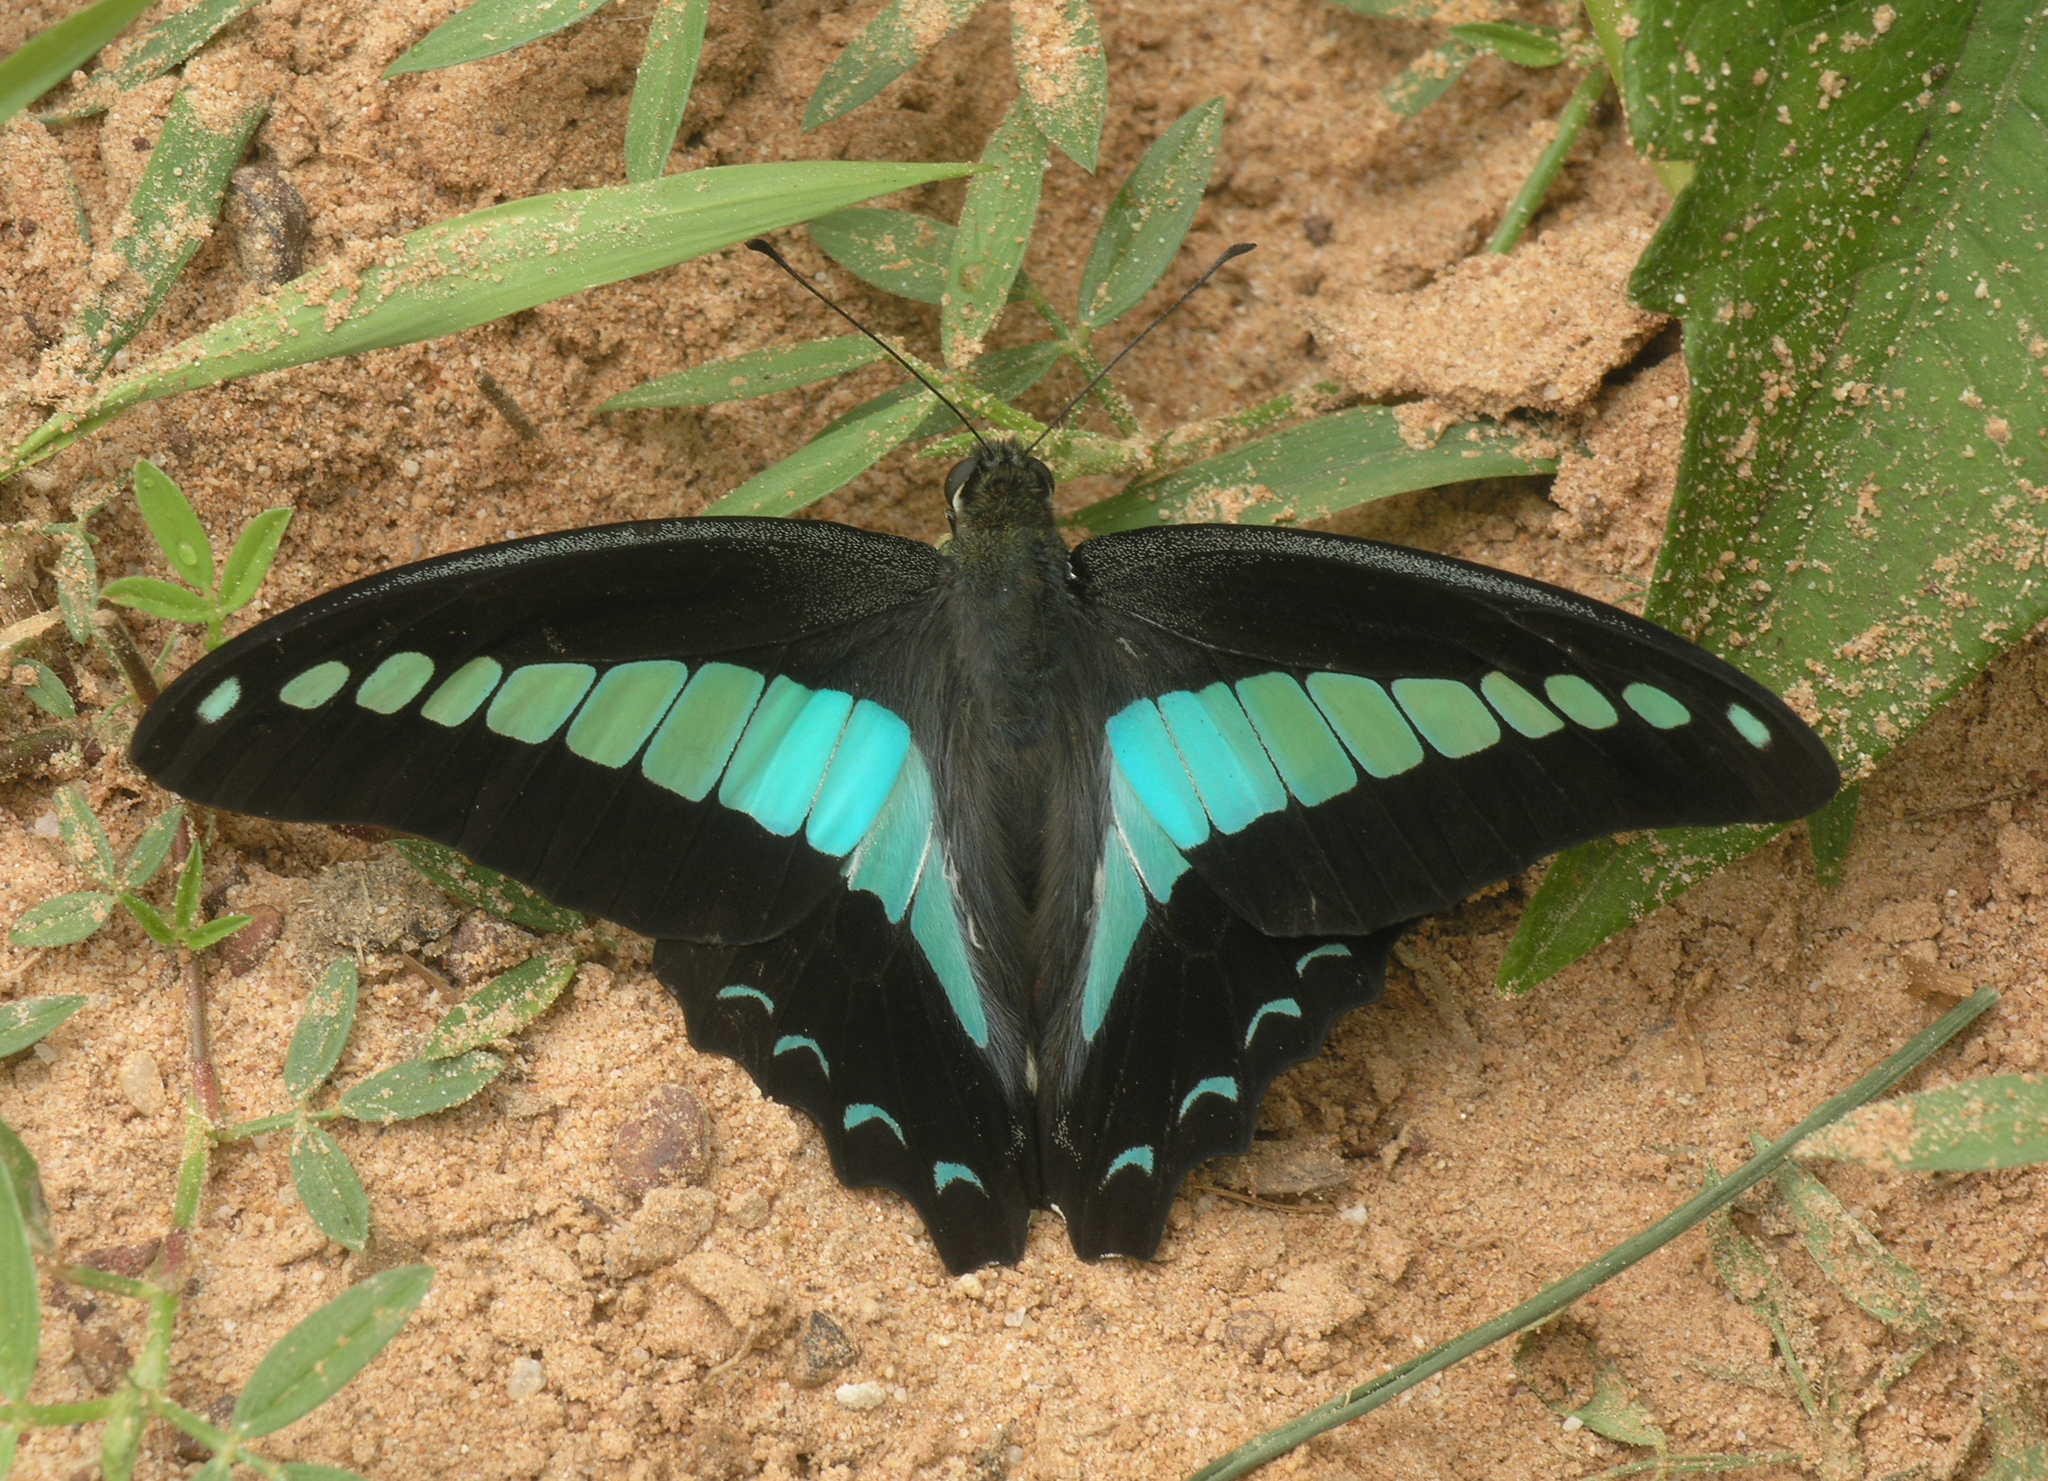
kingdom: Fungi
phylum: Ascomycota
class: Sordariomycetes
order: Microascales
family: Microascaceae
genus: Graphium
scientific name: Graphium sarpedon
